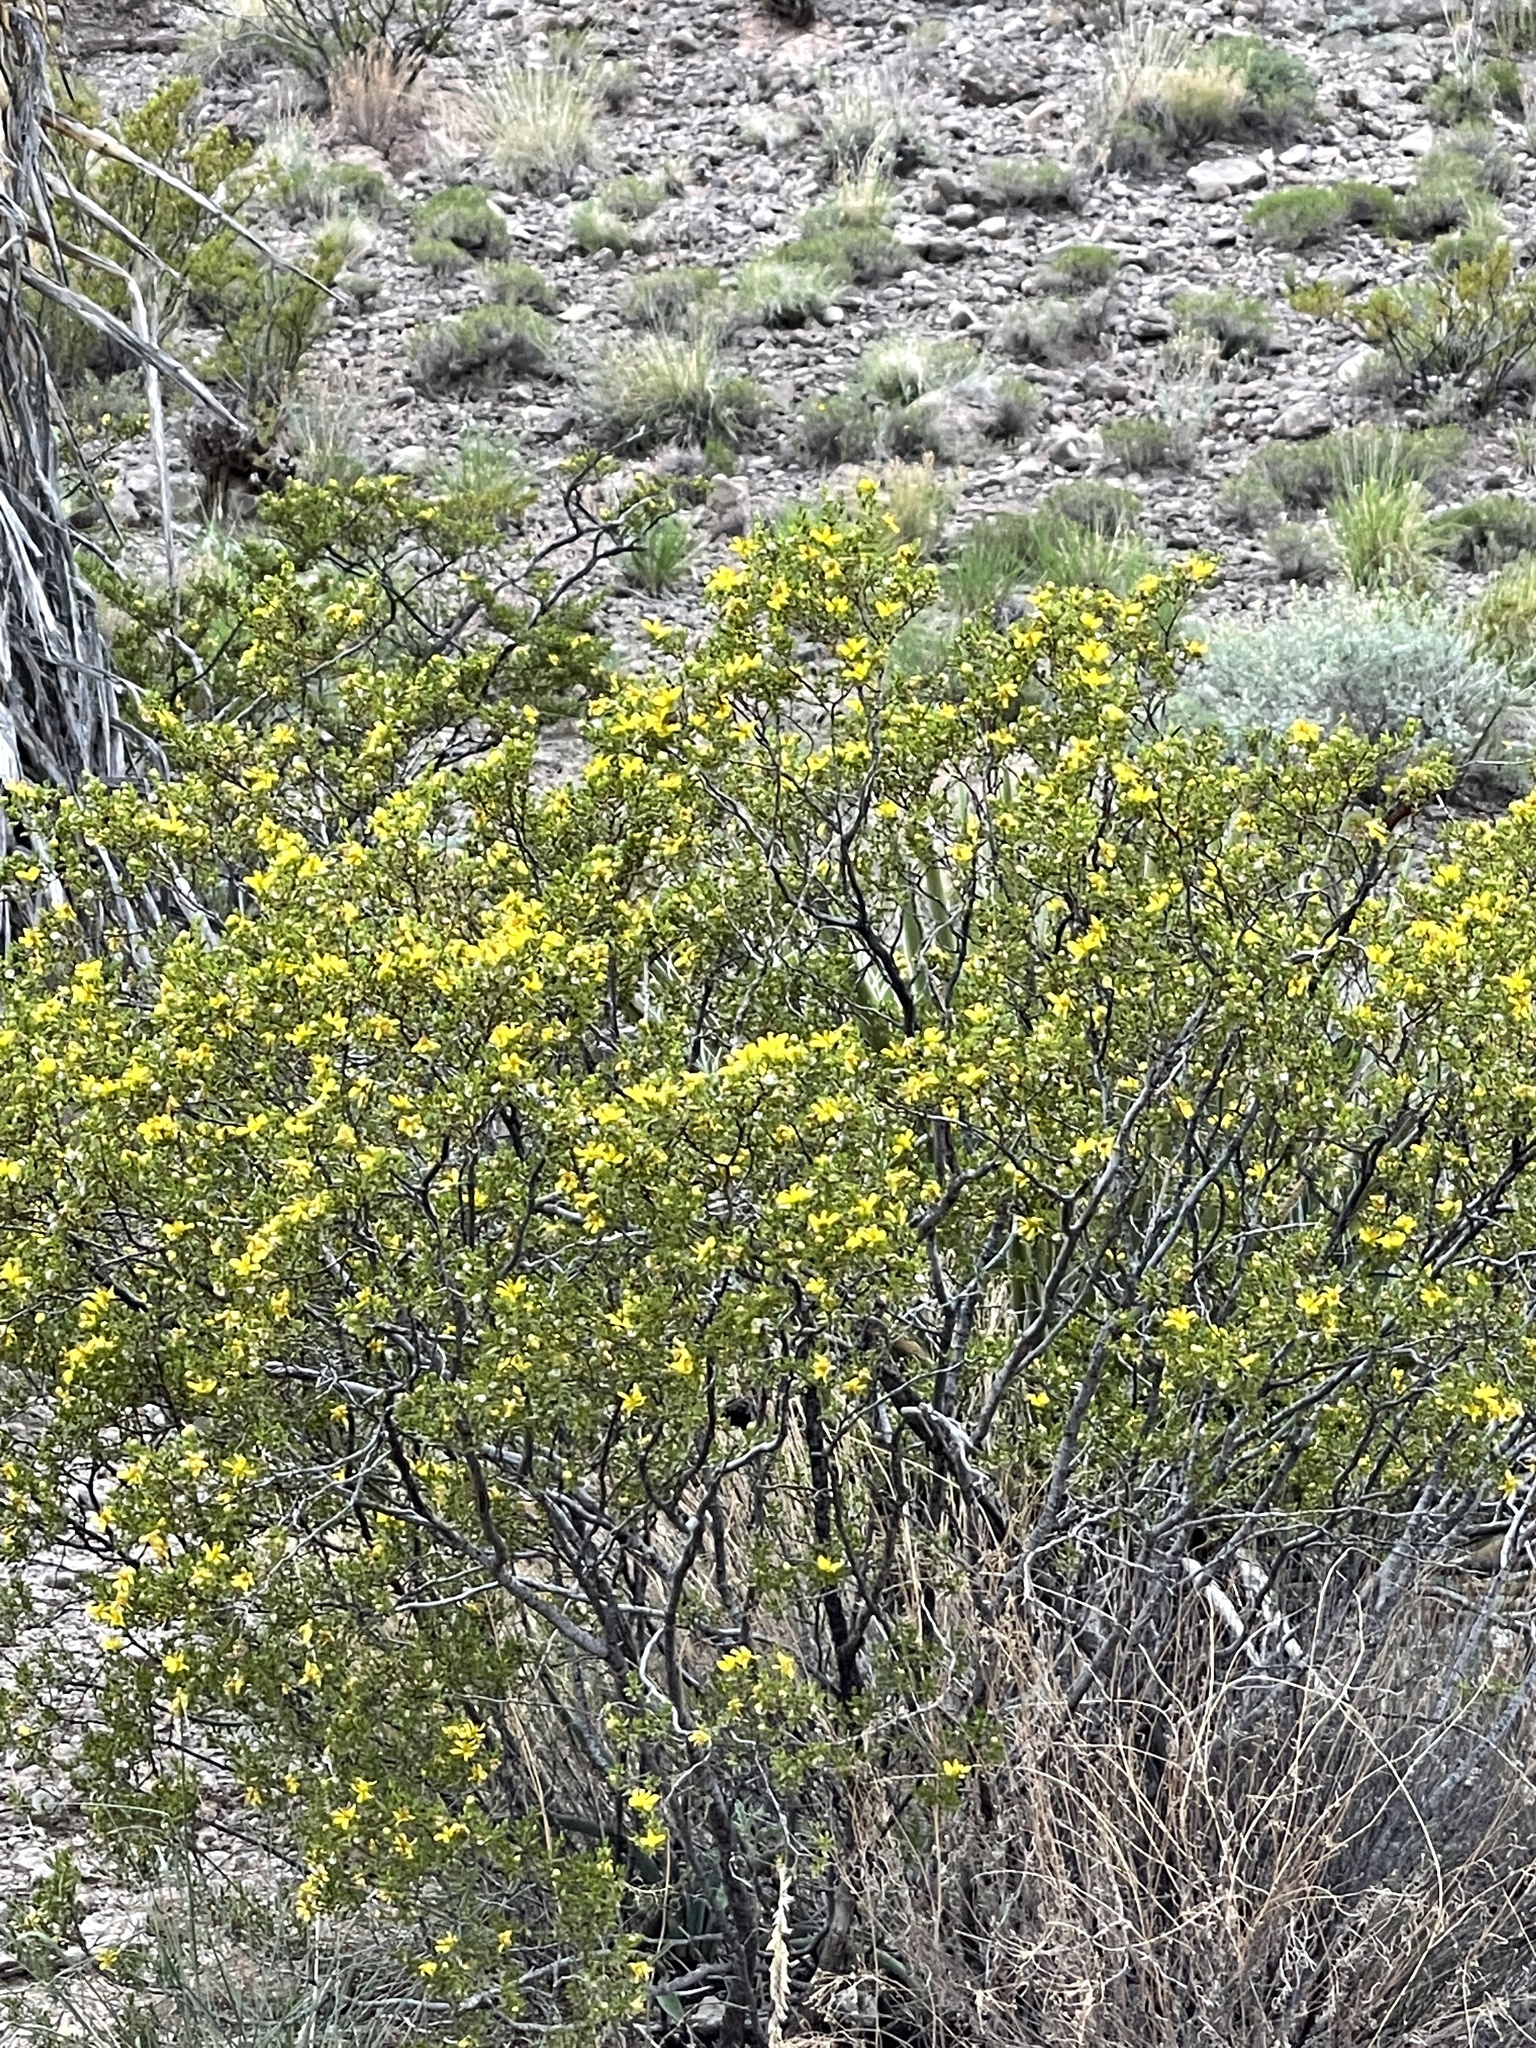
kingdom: Plantae
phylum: Tracheophyta
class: Magnoliopsida
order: Zygophyllales
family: Zygophyllaceae
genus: Larrea
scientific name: Larrea tridentata
